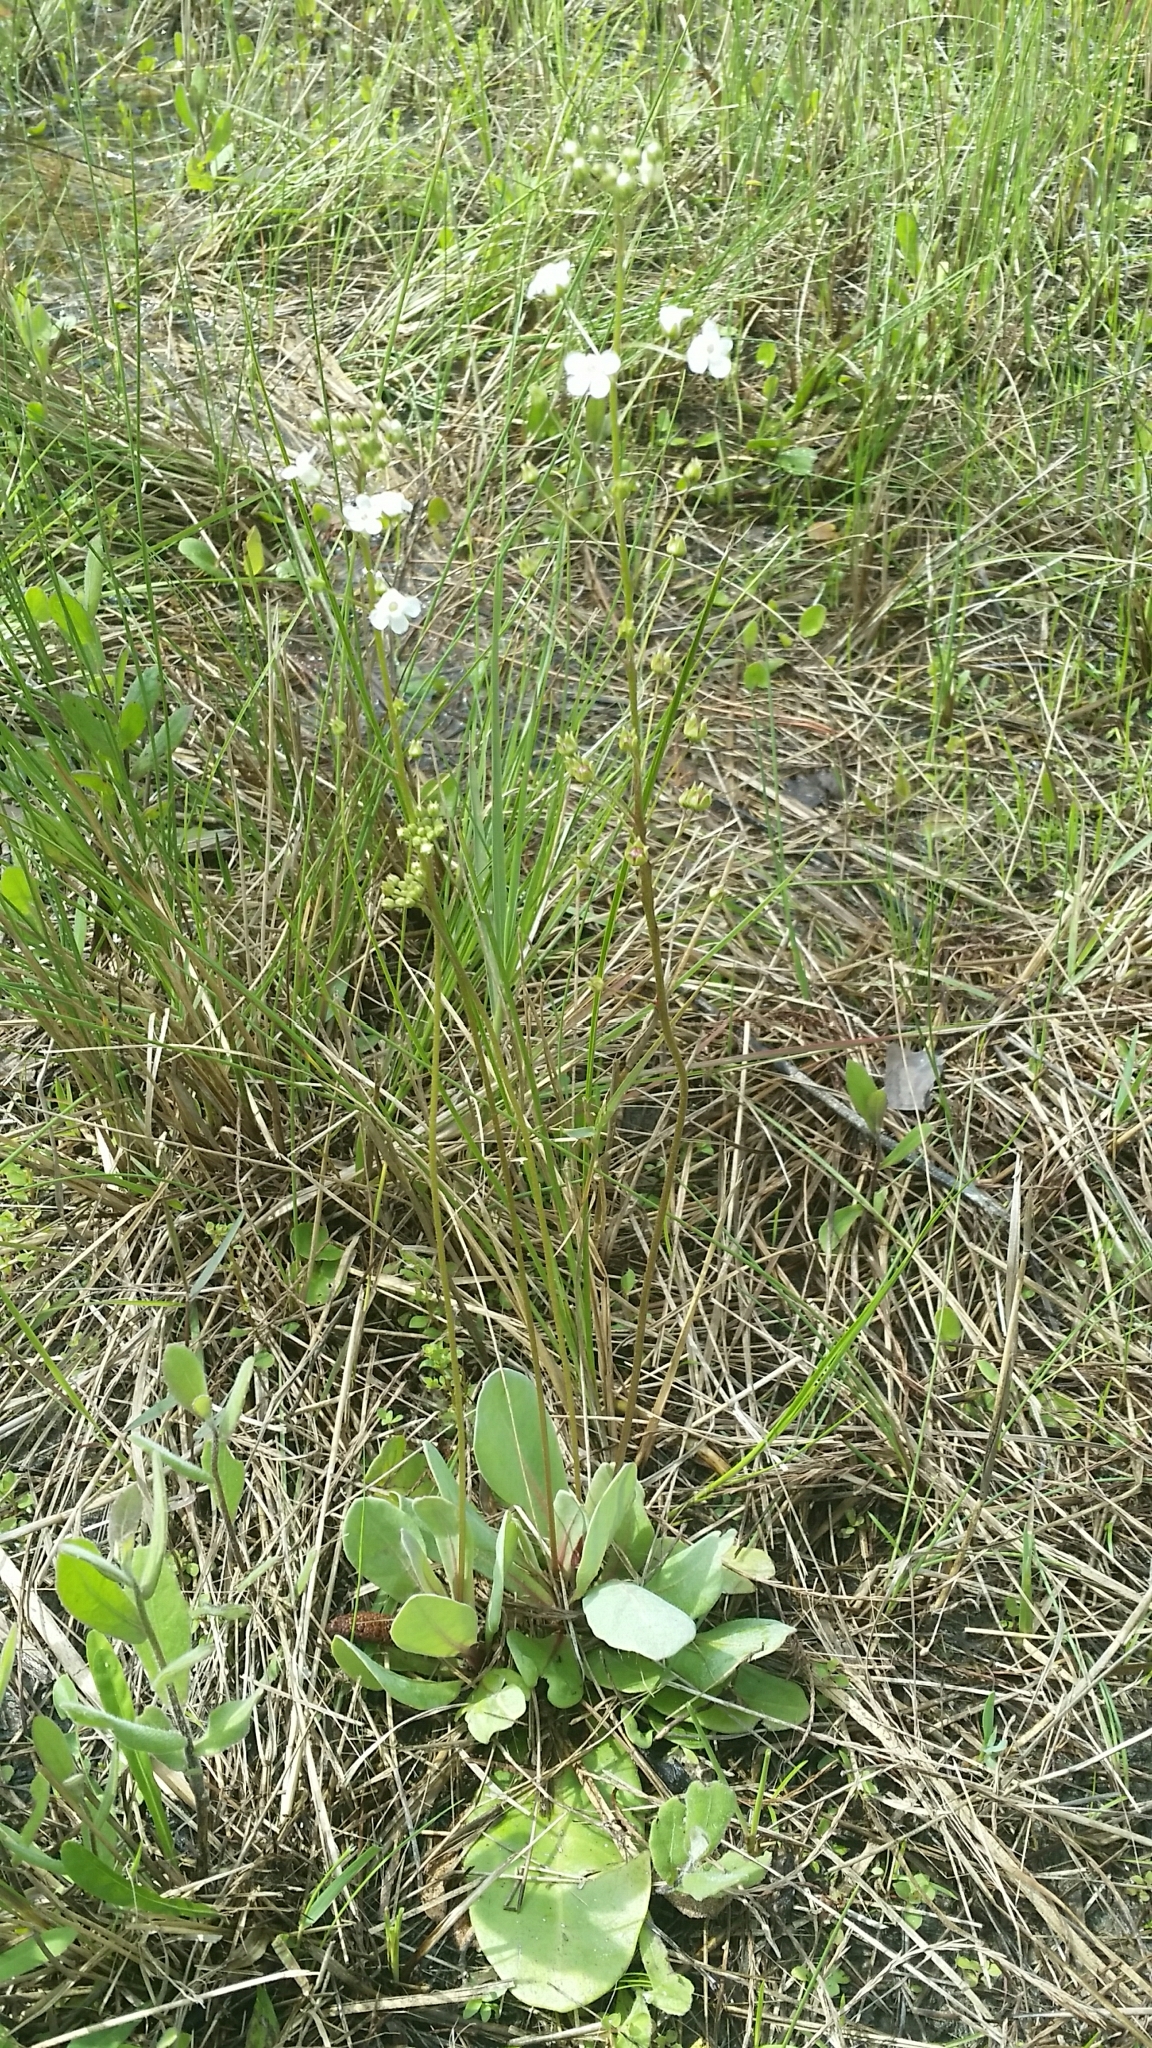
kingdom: Plantae
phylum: Tracheophyta
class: Magnoliopsida
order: Ericales
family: Primulaceae
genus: Samolus
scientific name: Samolus ebracteatus
